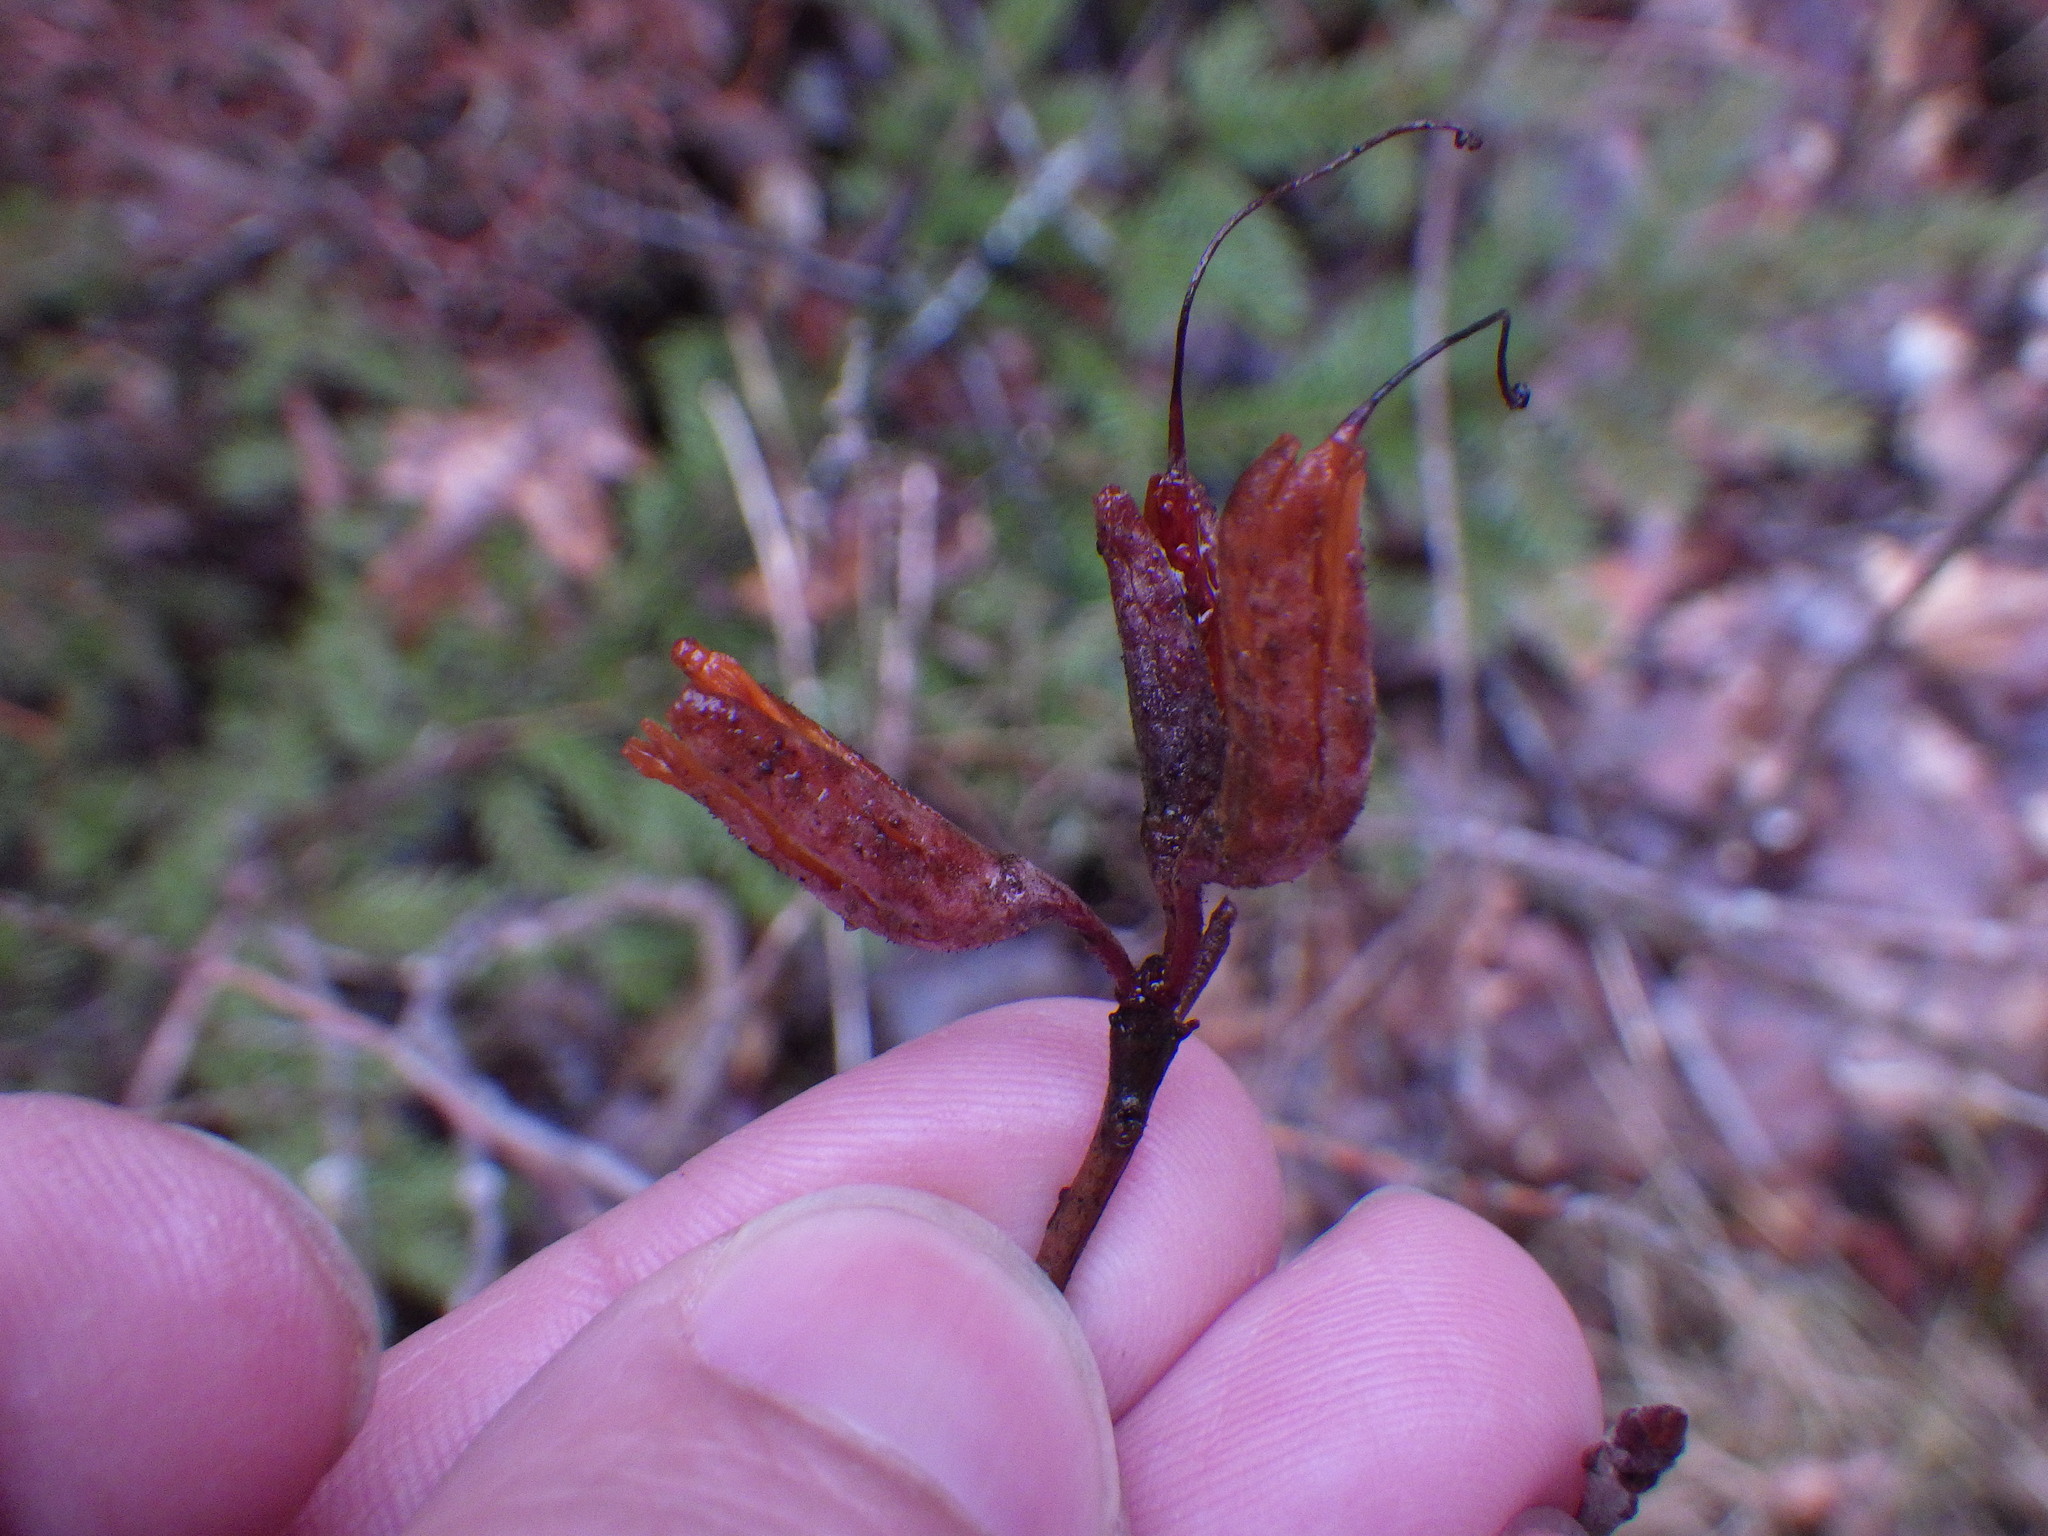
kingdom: Plantae
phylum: Tracheophyta
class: Magnoliopsida
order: Ericales
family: Ericaceae
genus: Rhododendron
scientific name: Rhododendron canadense
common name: Rhodora
